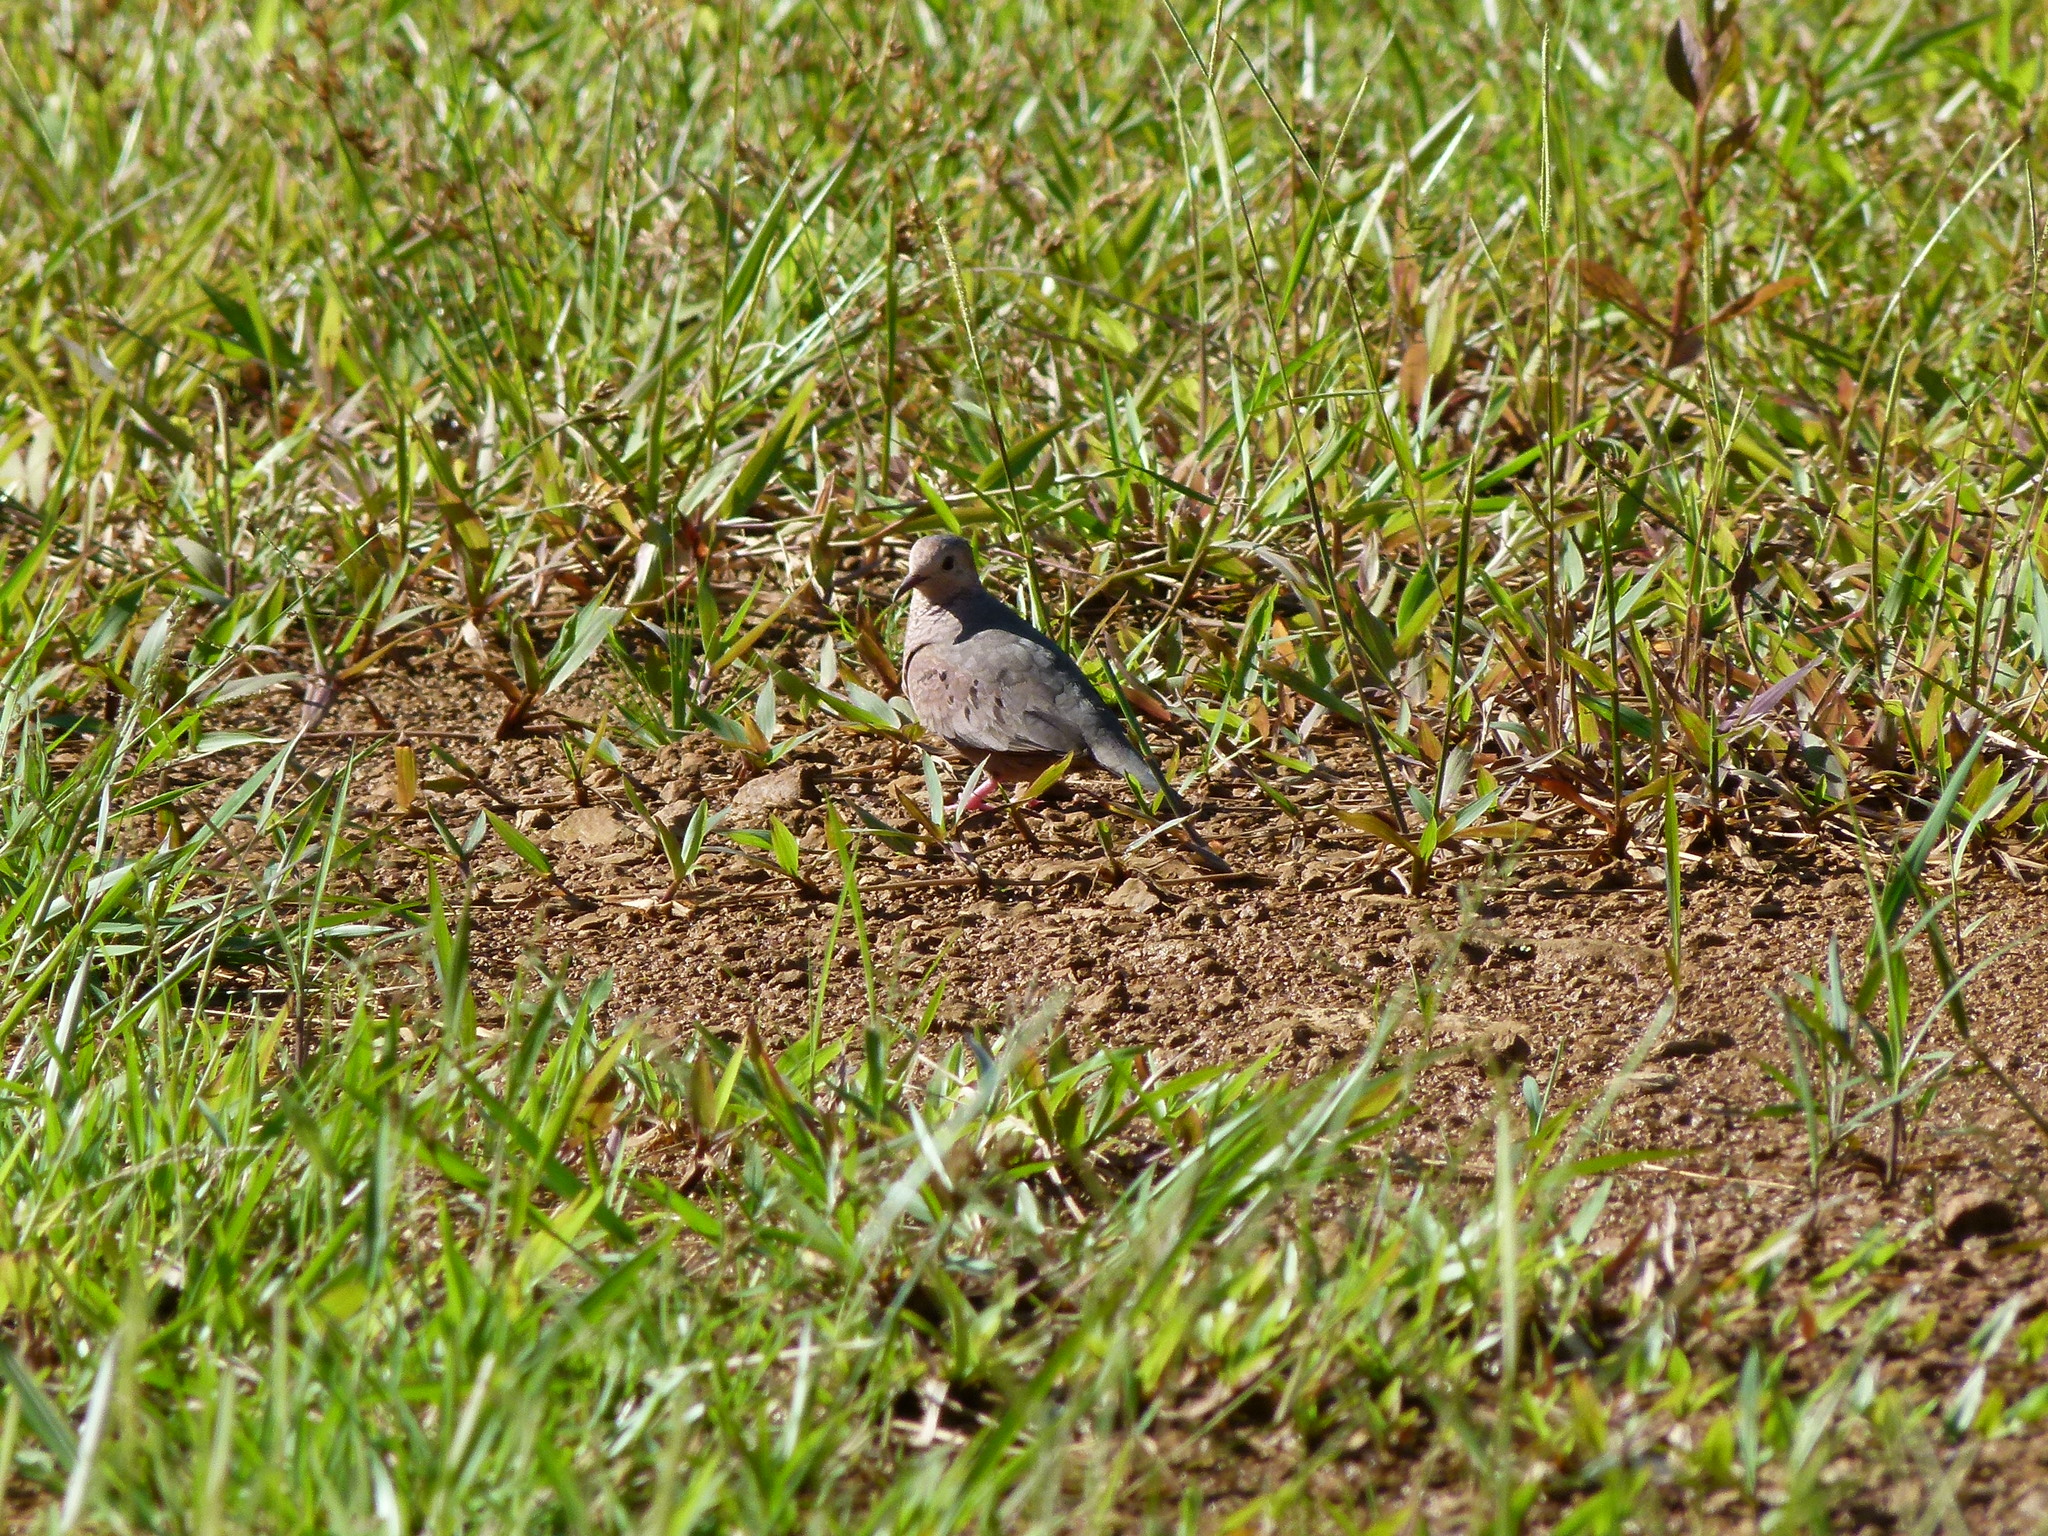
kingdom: Animalia
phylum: Chordata
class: Aves
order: Columbiformes
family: Columbidae
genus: Zenaida
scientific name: Zenaida auriculata
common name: Eared dove
